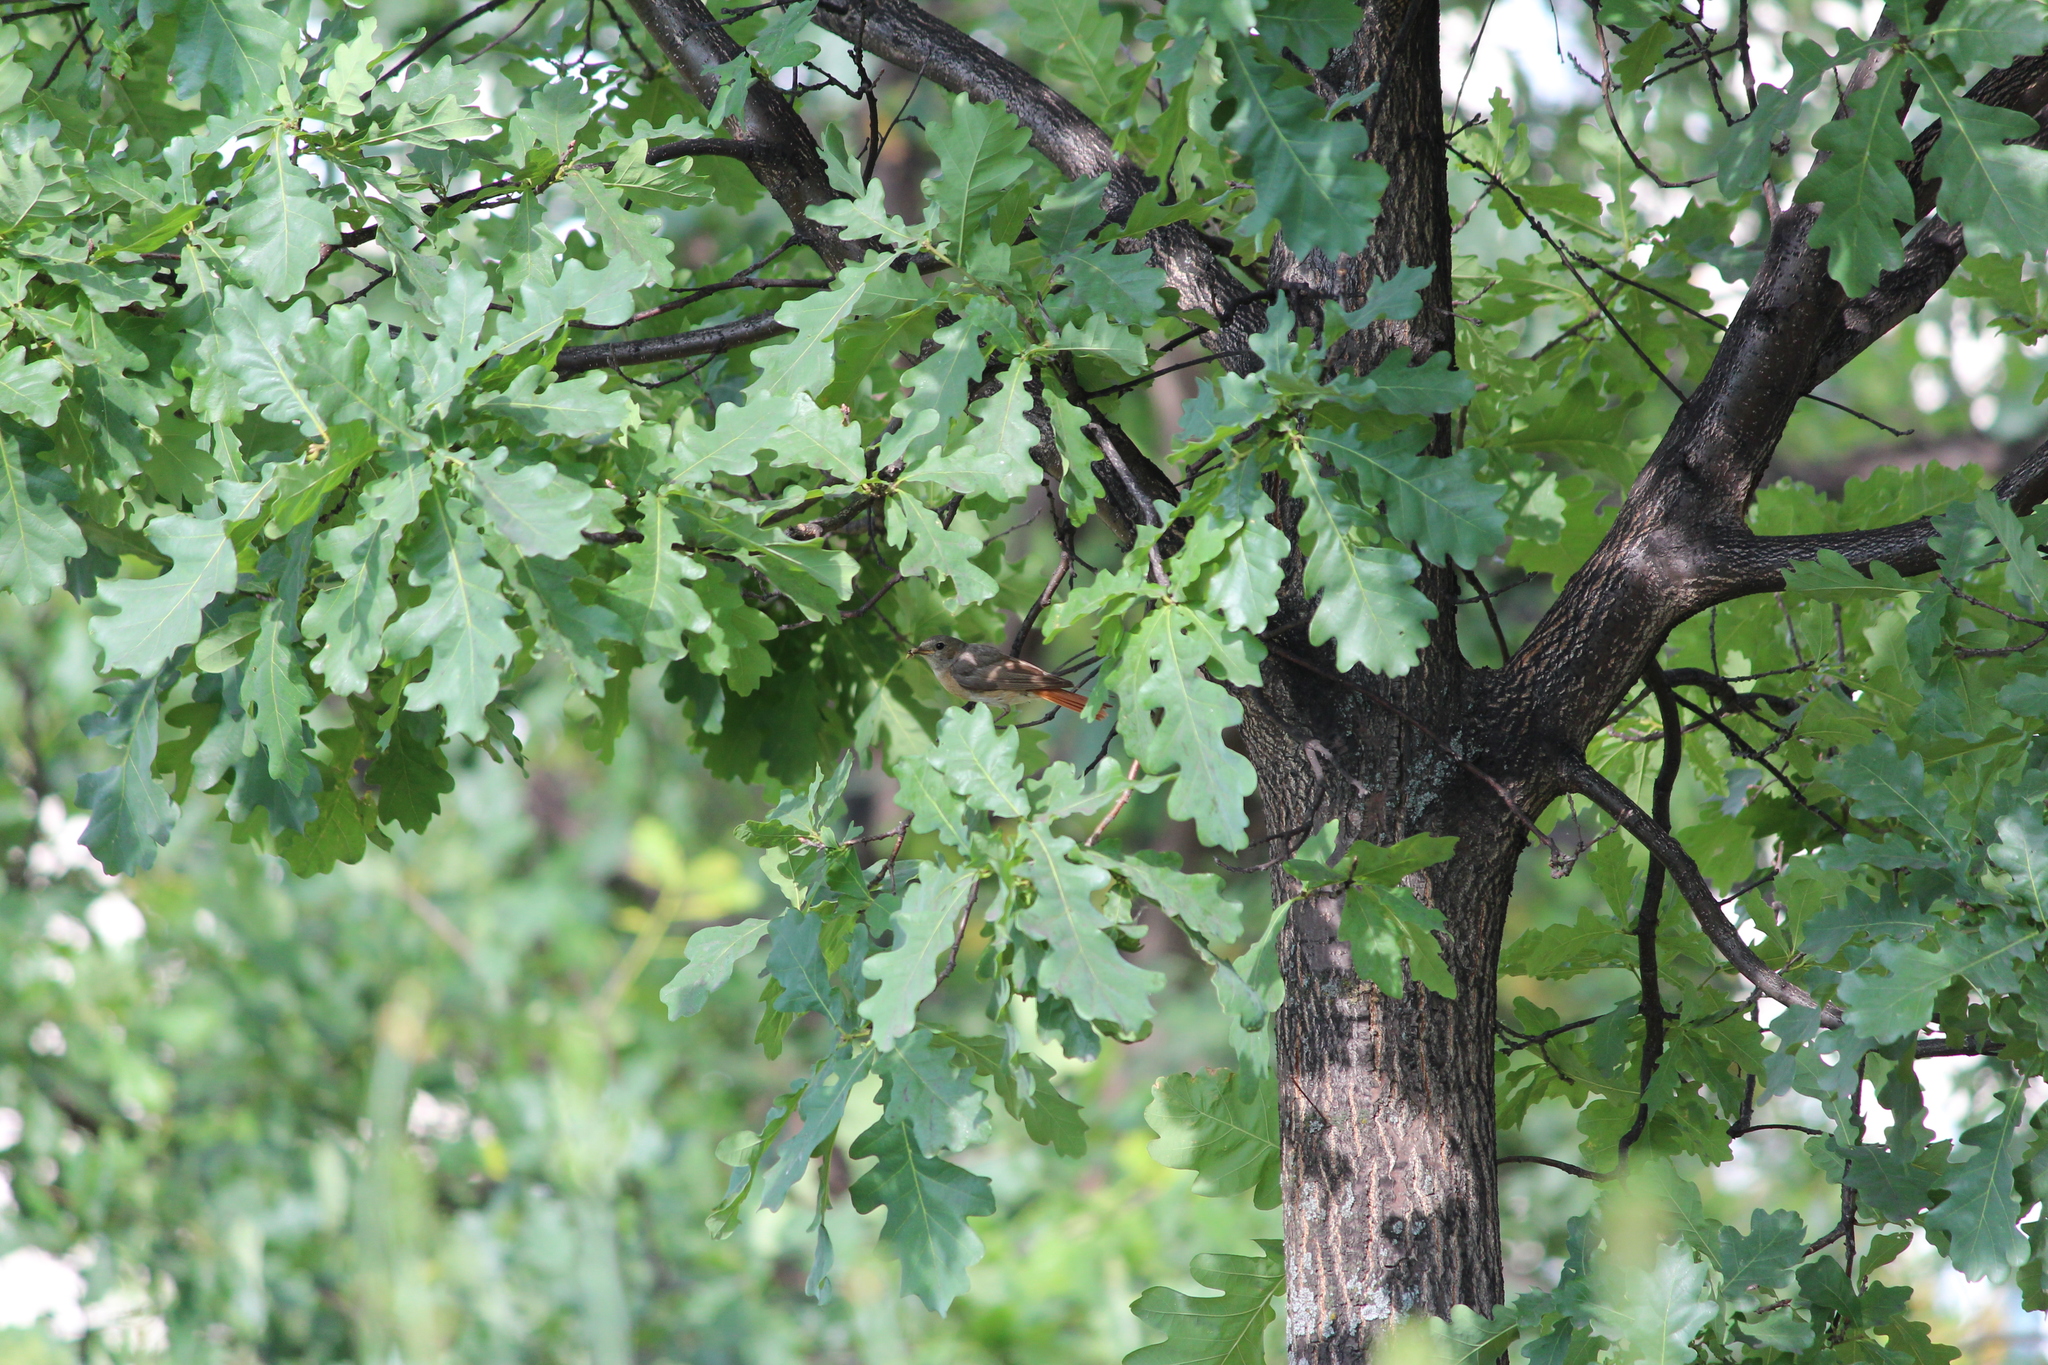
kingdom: Animalia
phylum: Chordata
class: Aves
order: Passeriformes
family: Muscicapidae
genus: Phoenicurus
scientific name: Phoenicurus phoenicurus
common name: Common redstart
